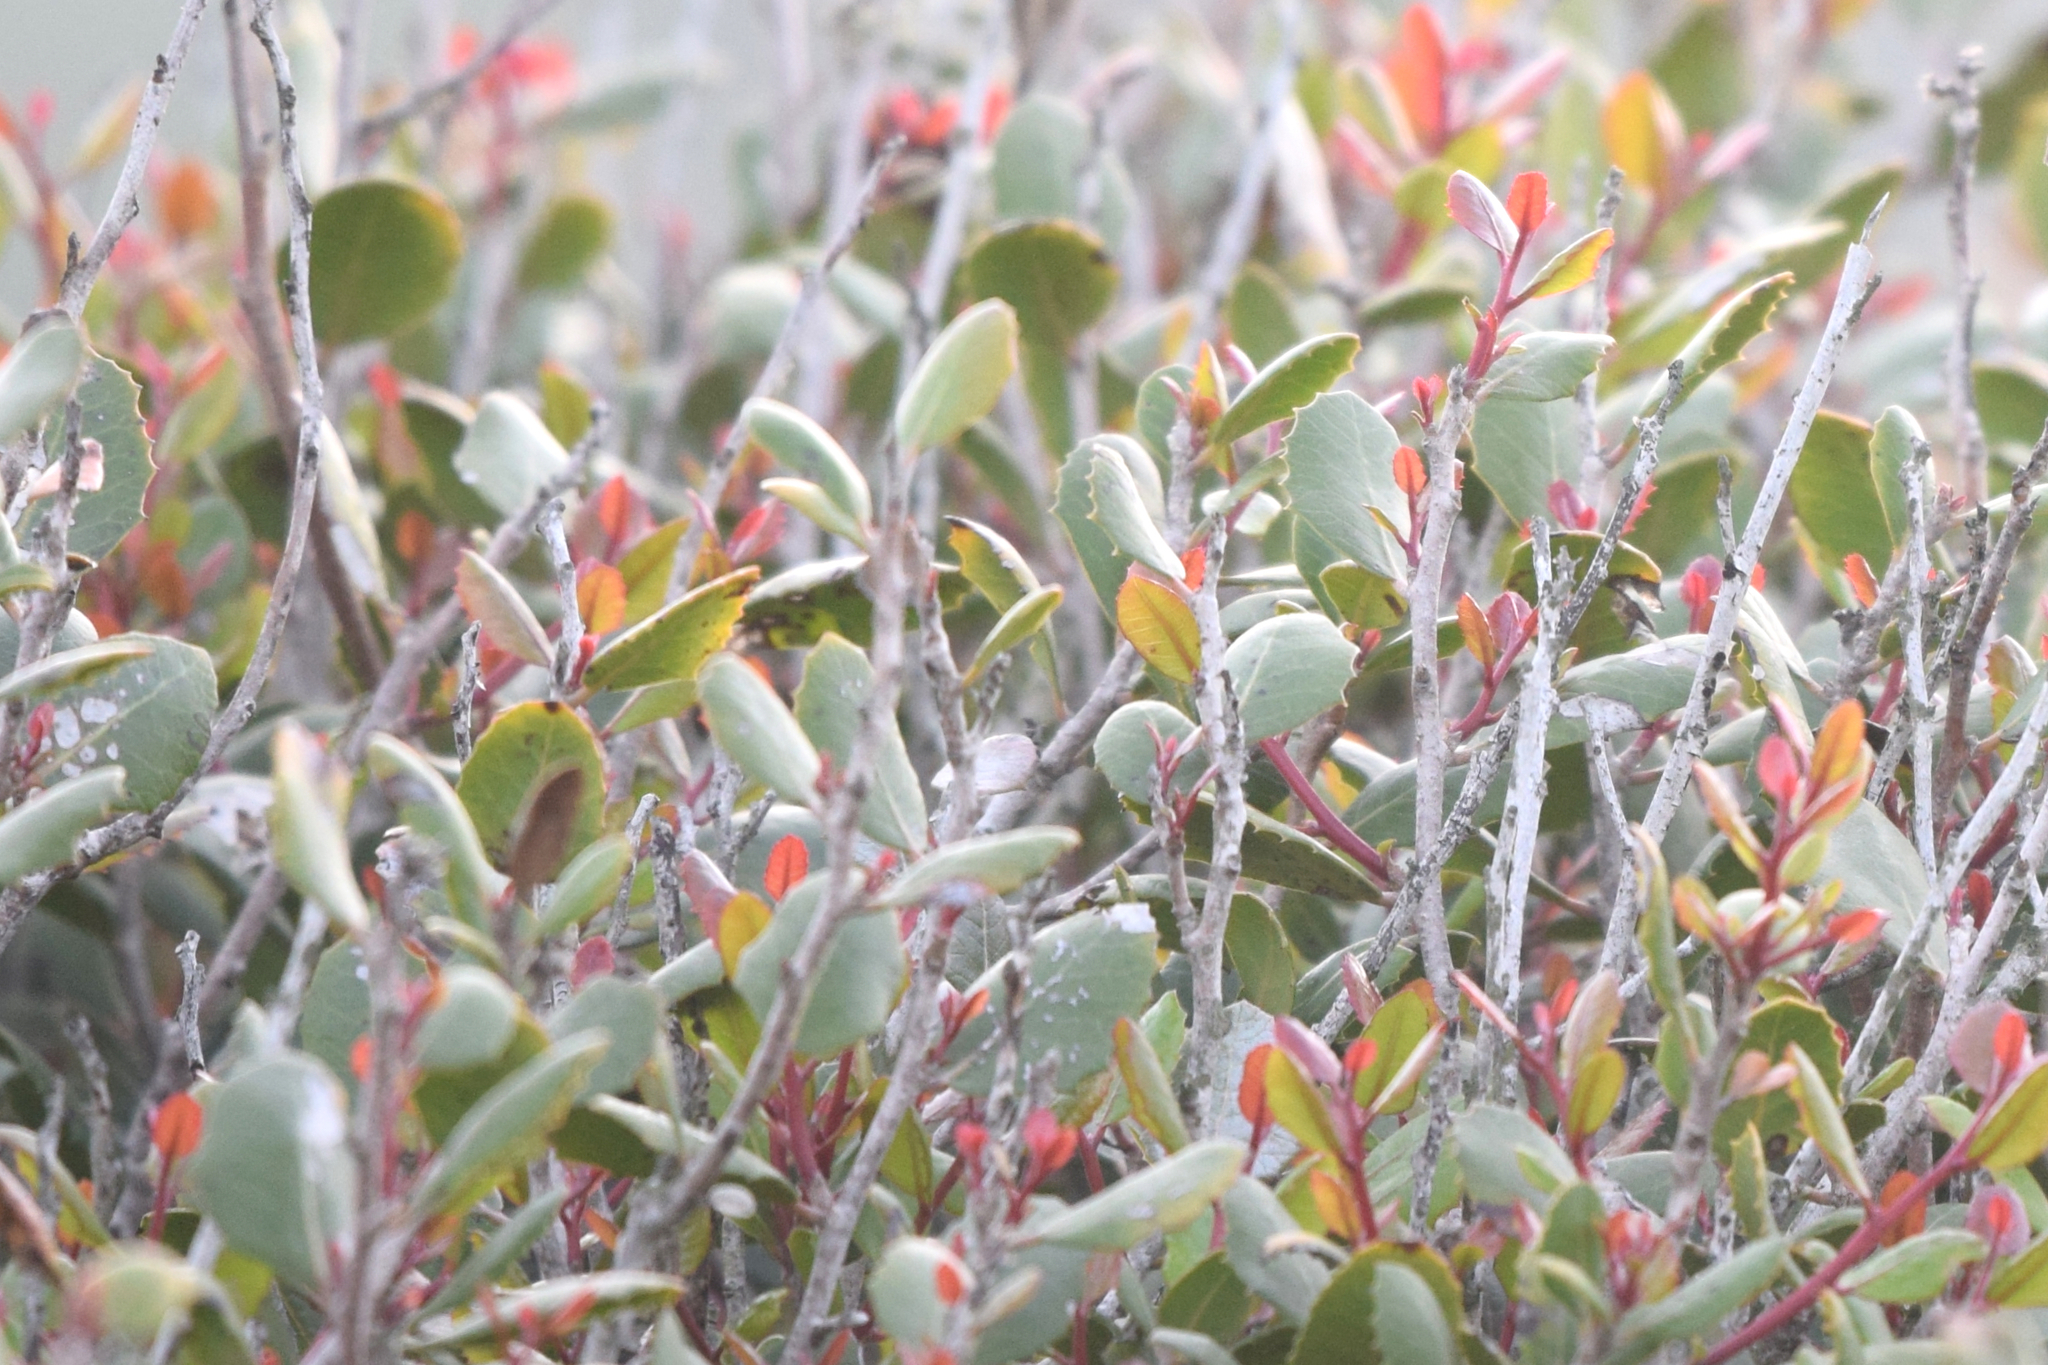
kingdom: Plantae
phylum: Tracheophyta
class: Magnoliopsida
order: Sapindales
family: Anacardiaceae
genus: Rhus
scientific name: Rhus integrifolia
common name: Lemonade sumac
